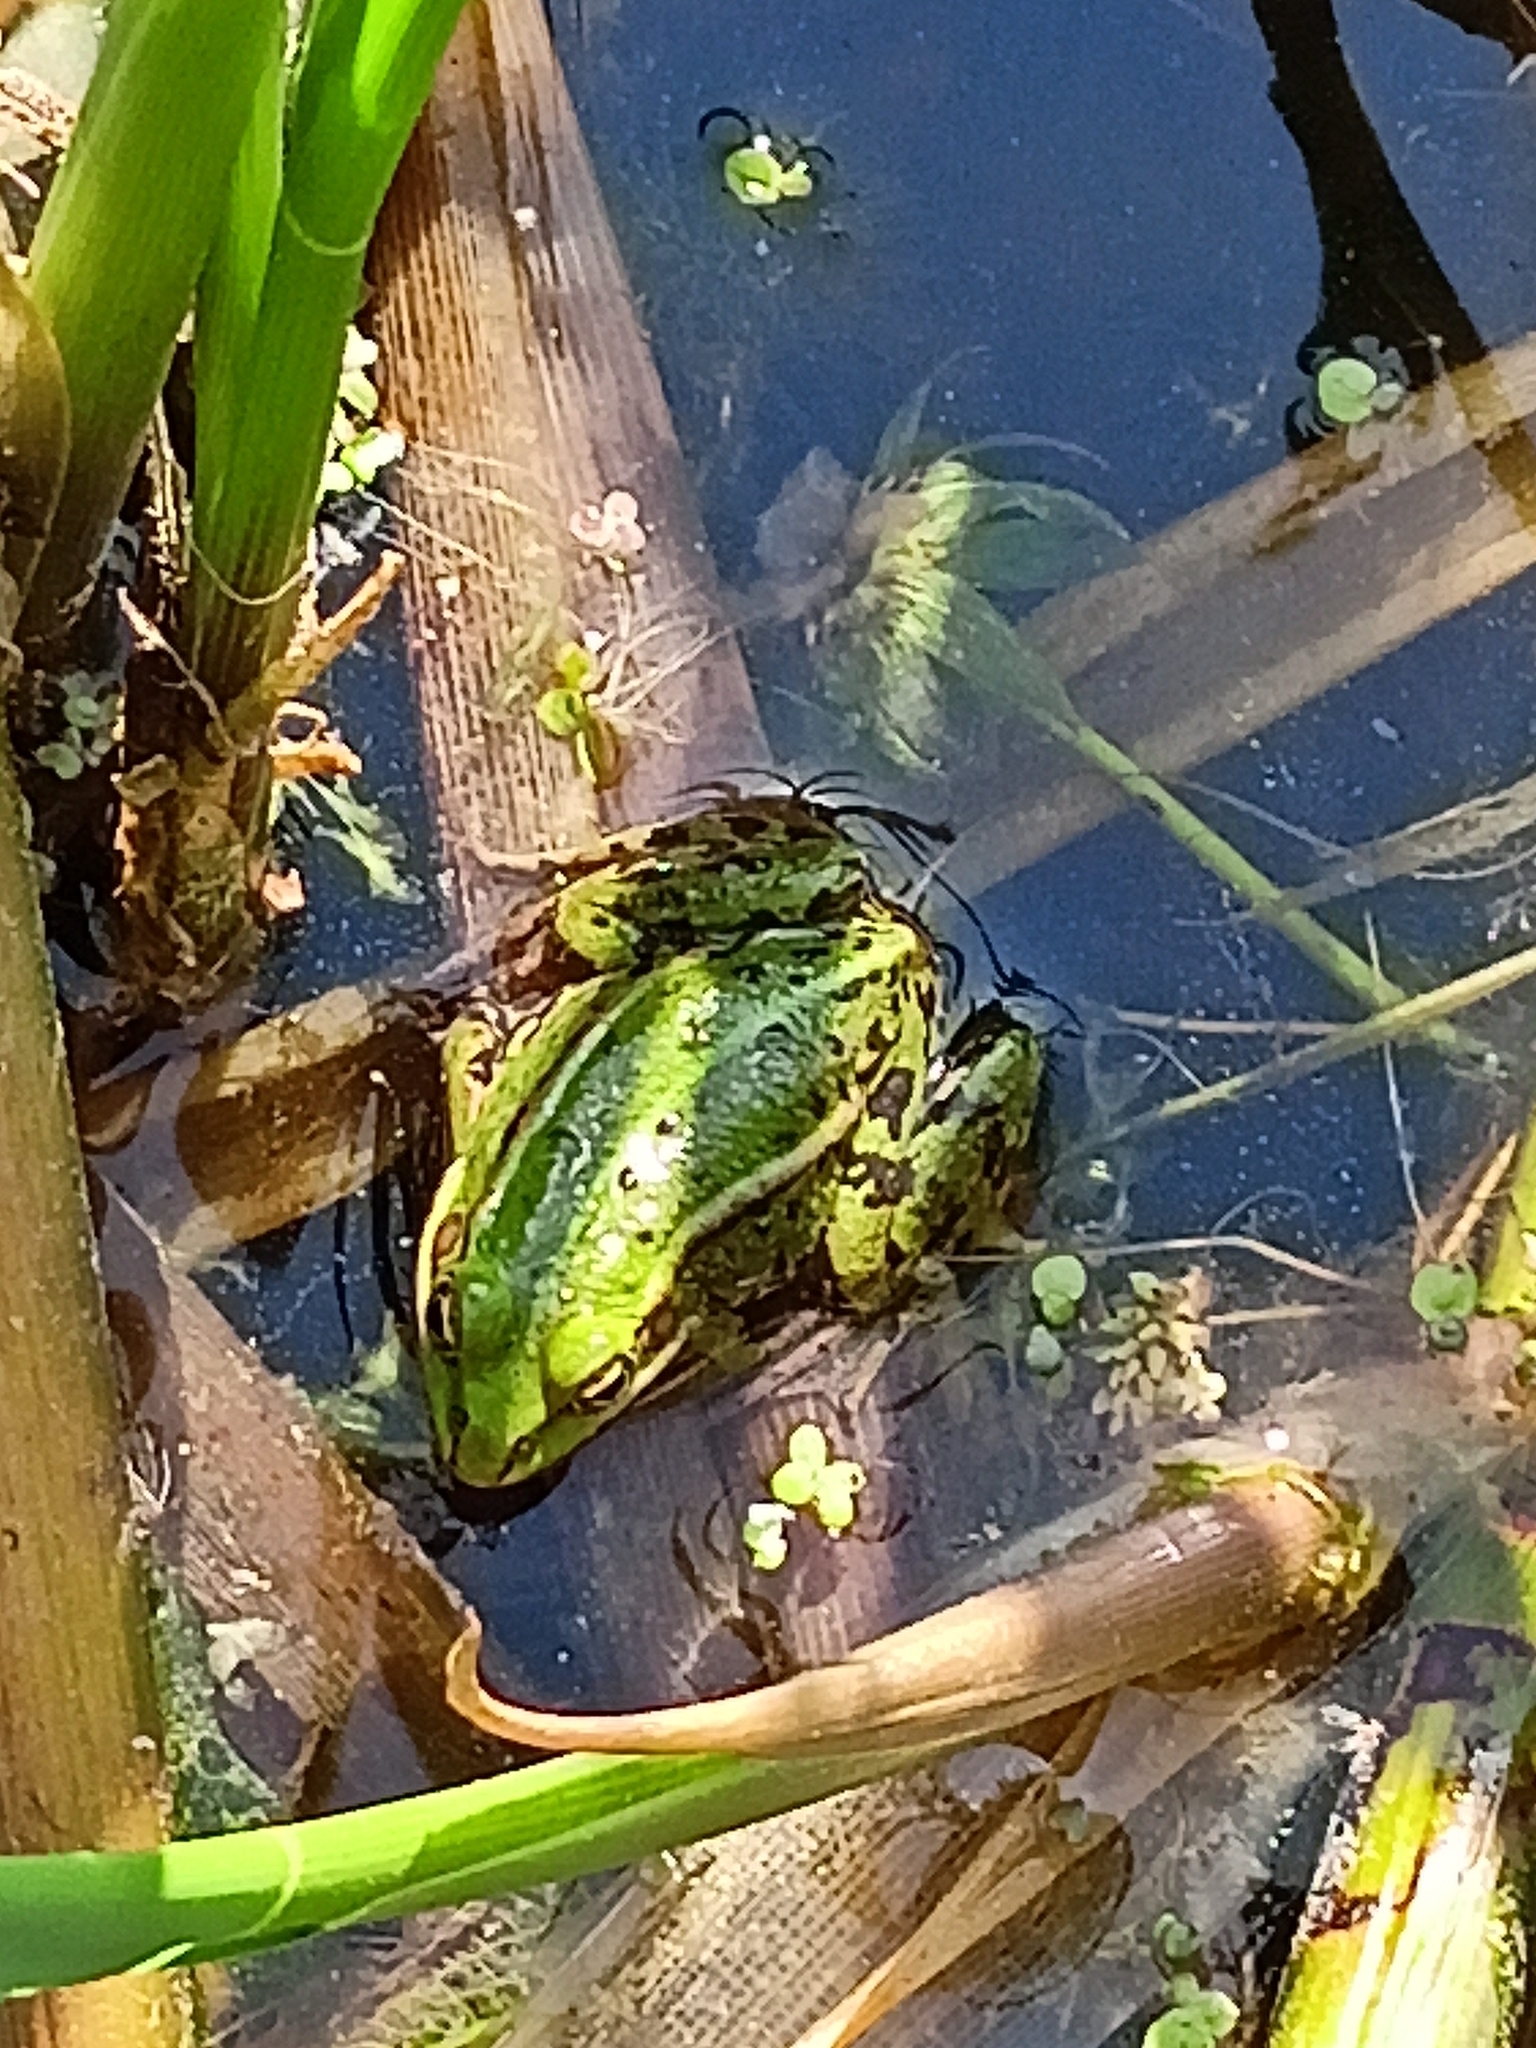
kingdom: Animalia
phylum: Chordata
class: Amphibia
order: Anura
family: Ranidae
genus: Pelophylax
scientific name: Pelophylax lessonae
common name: Pool frog
